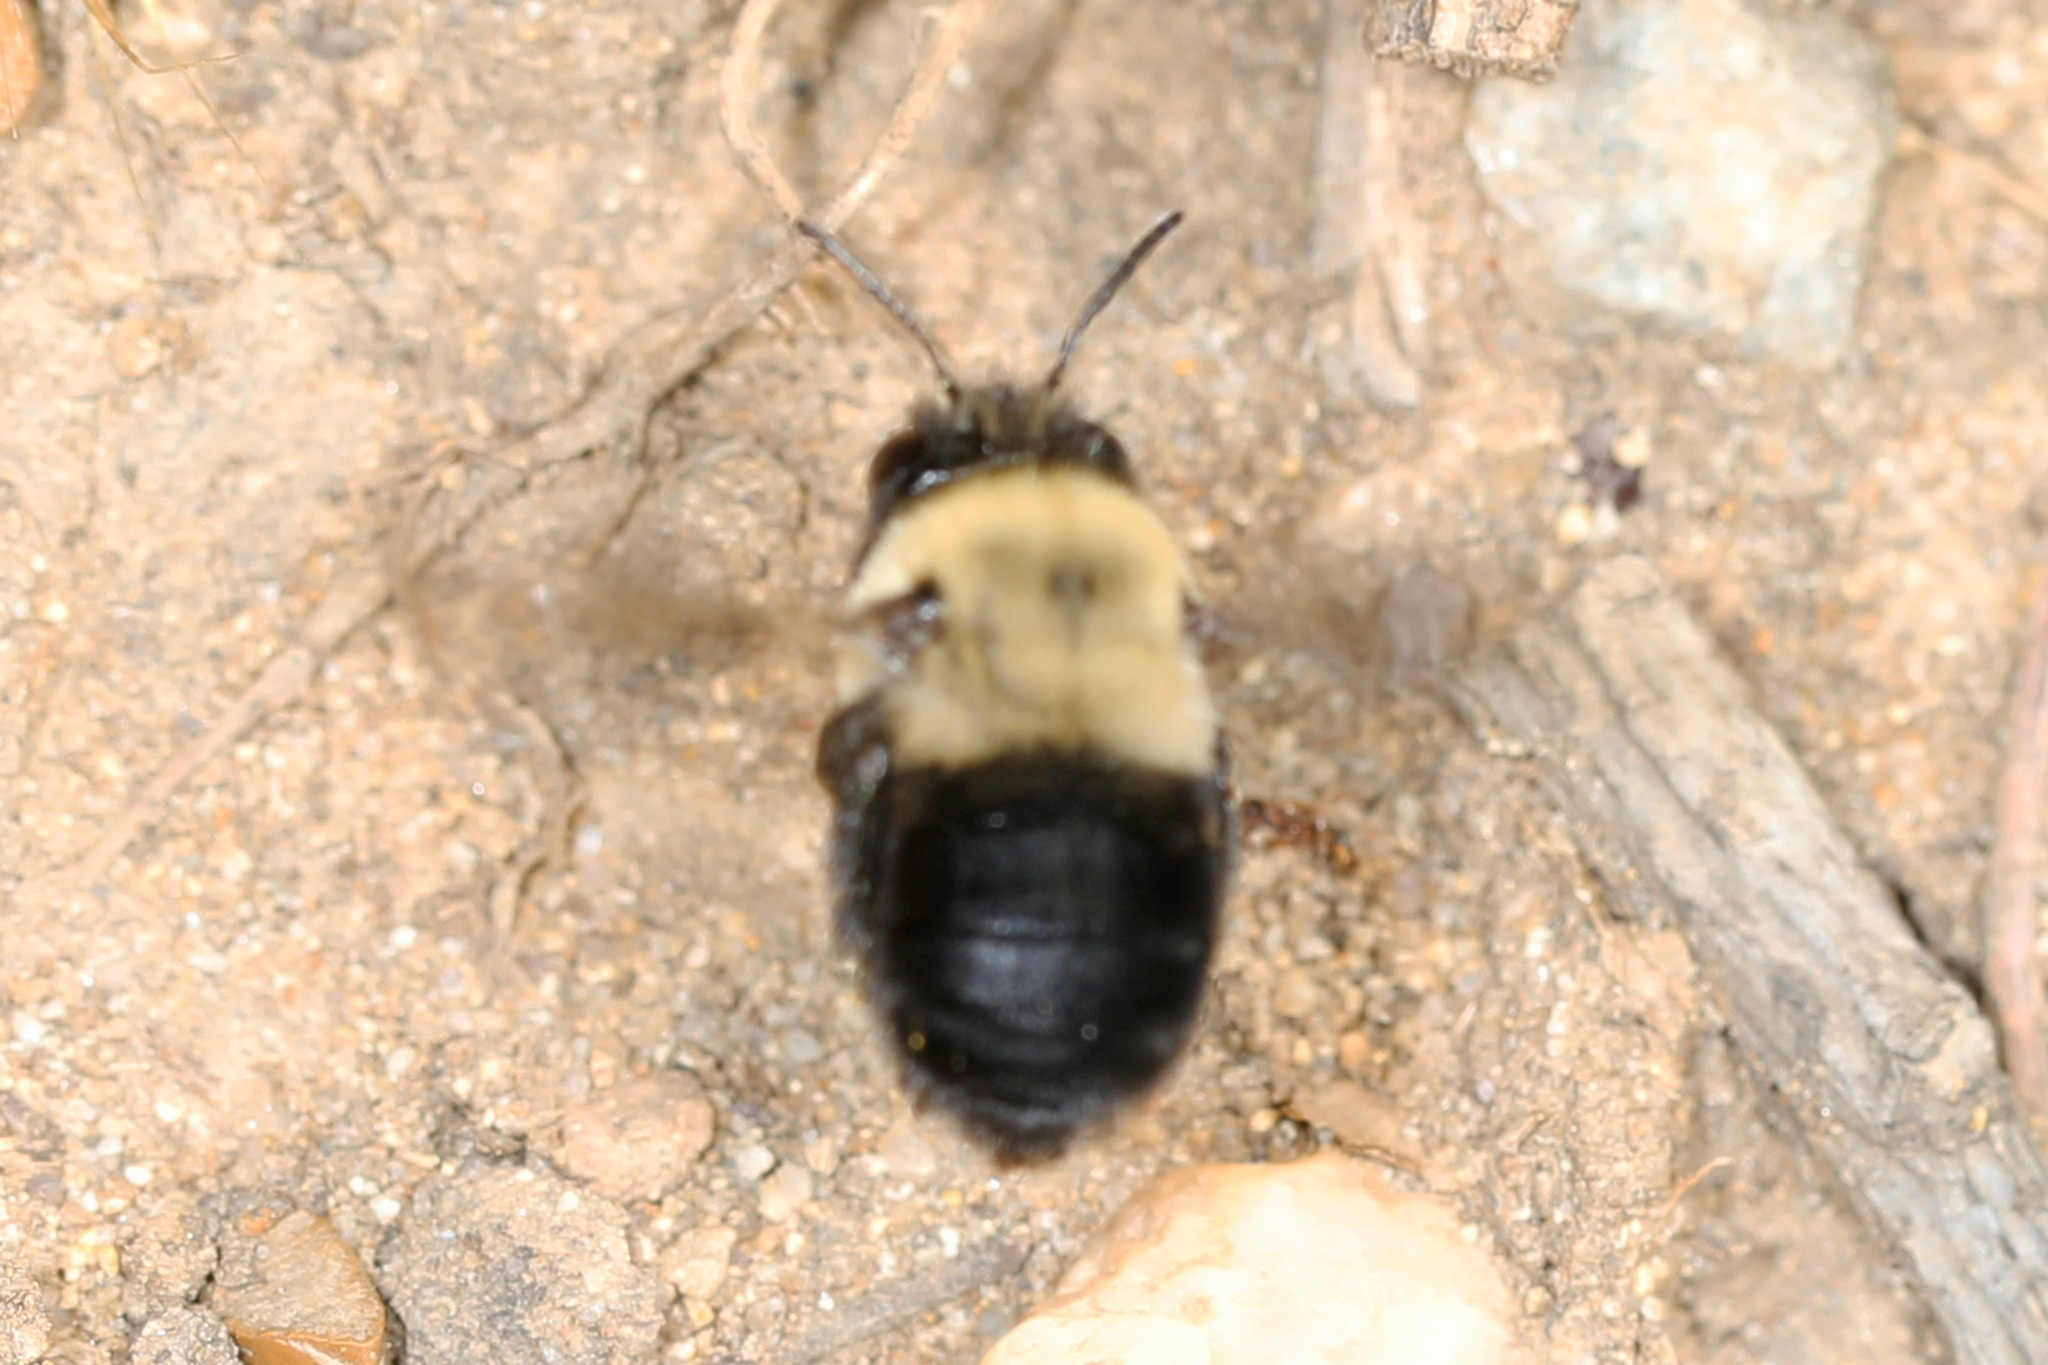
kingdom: Animalia
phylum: Arthropoda
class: Insecta
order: Hymenoptera
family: Apidae
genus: Anthophora
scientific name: Anthophora abrupta
